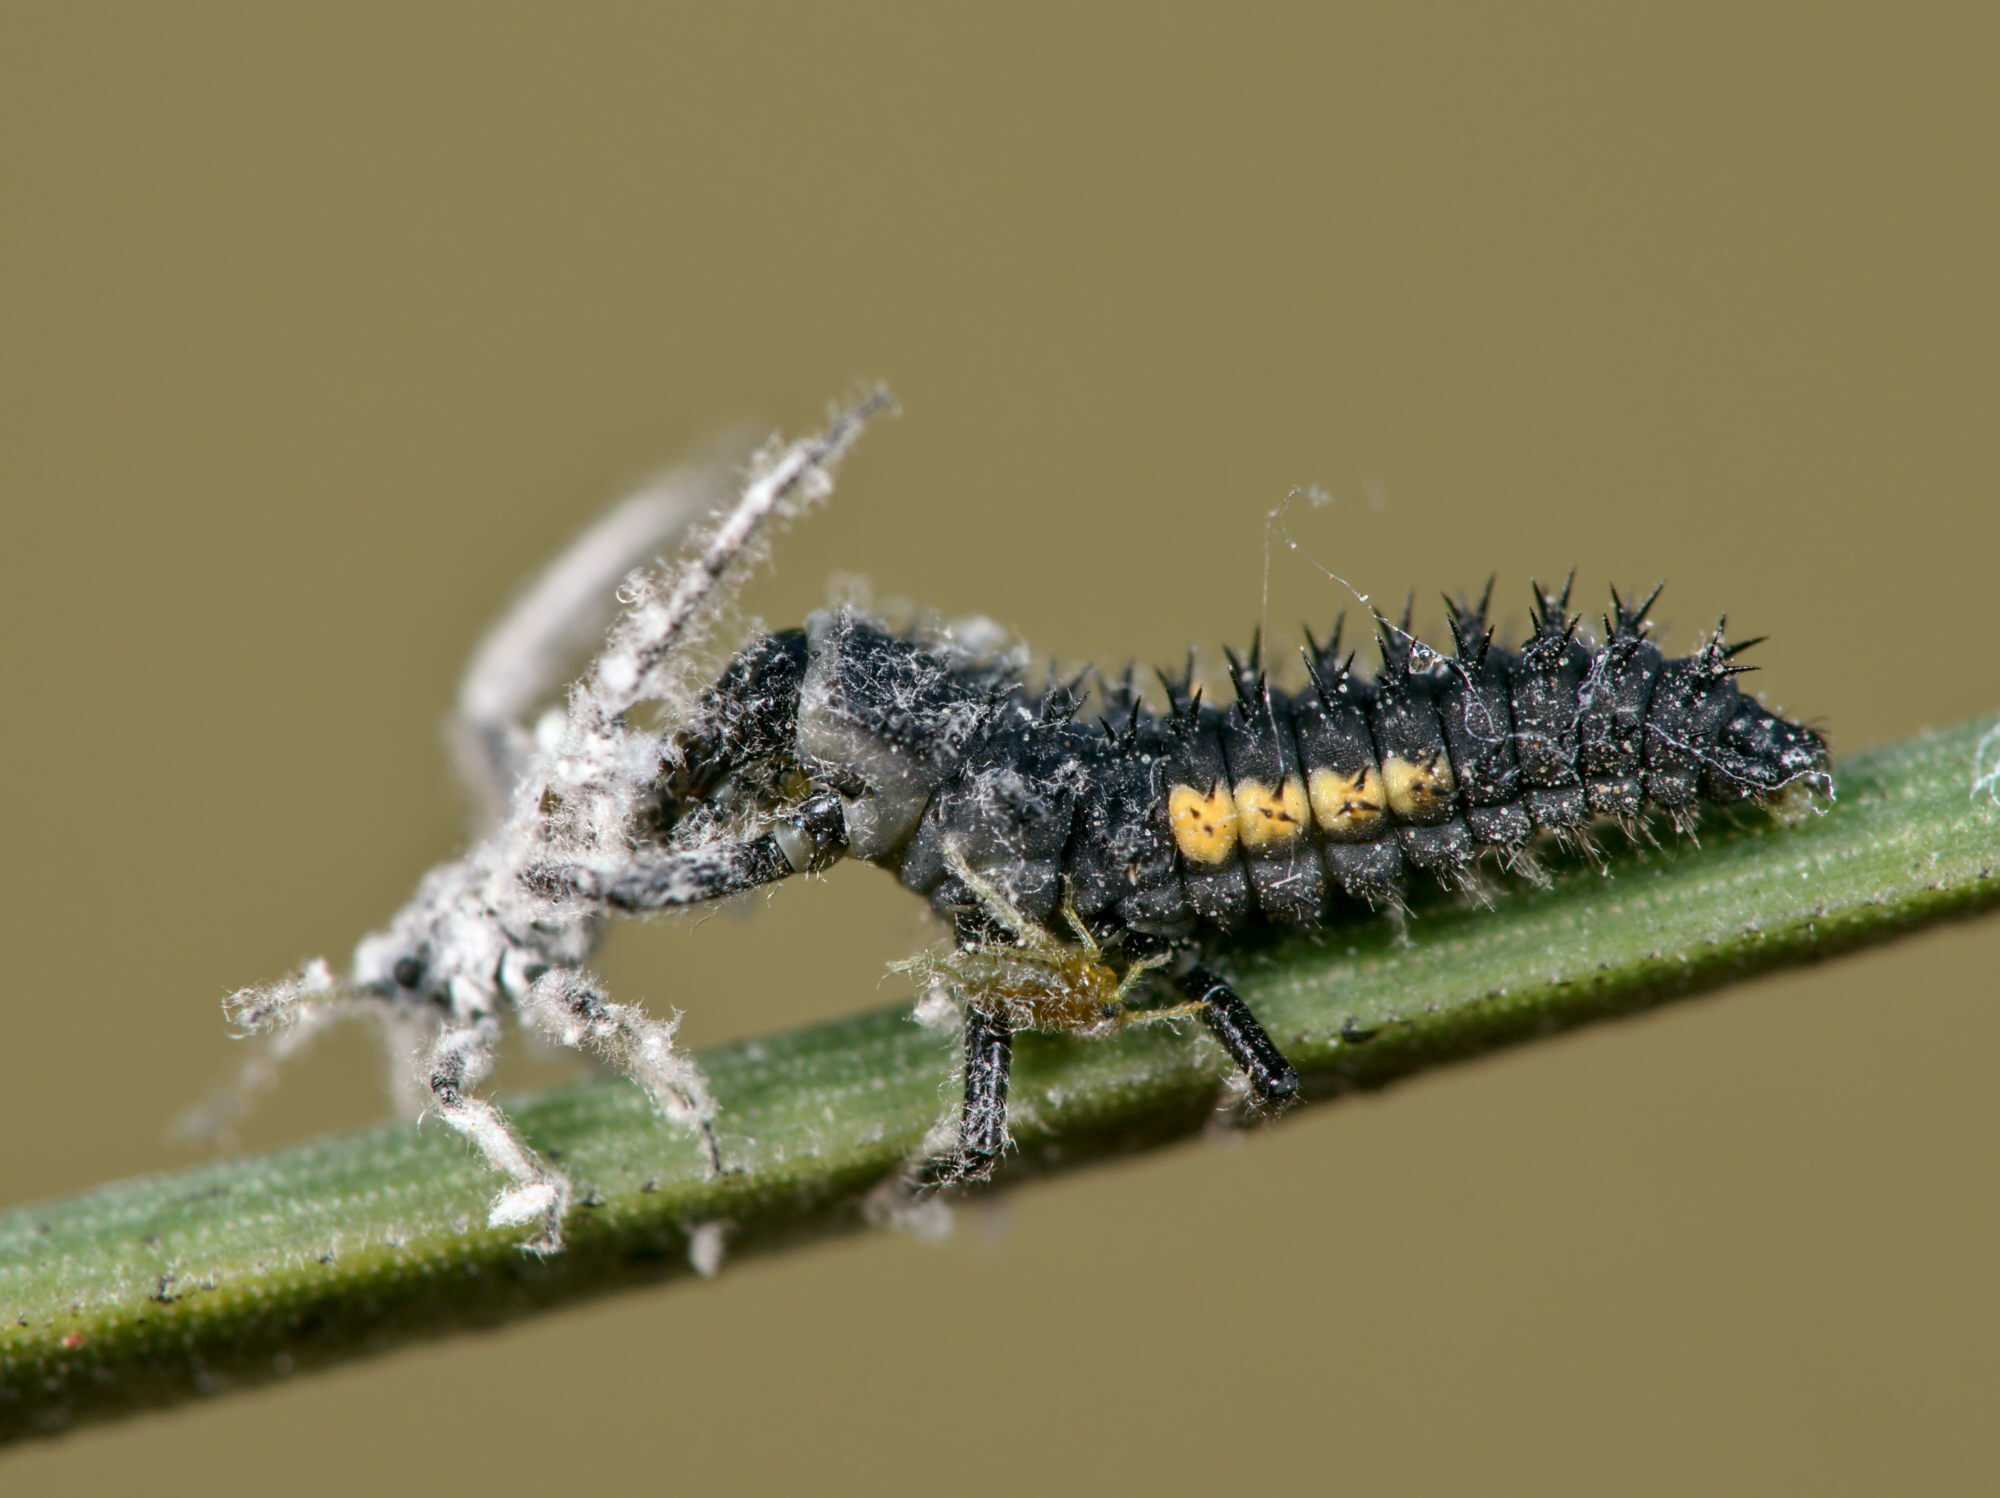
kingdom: Animalia
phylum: Arthropoda
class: Insecta
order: Coleoptera
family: Coccinellidae
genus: Harmonia
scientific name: Harmonia quadripunctata
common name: Cream-streaked ladybird
